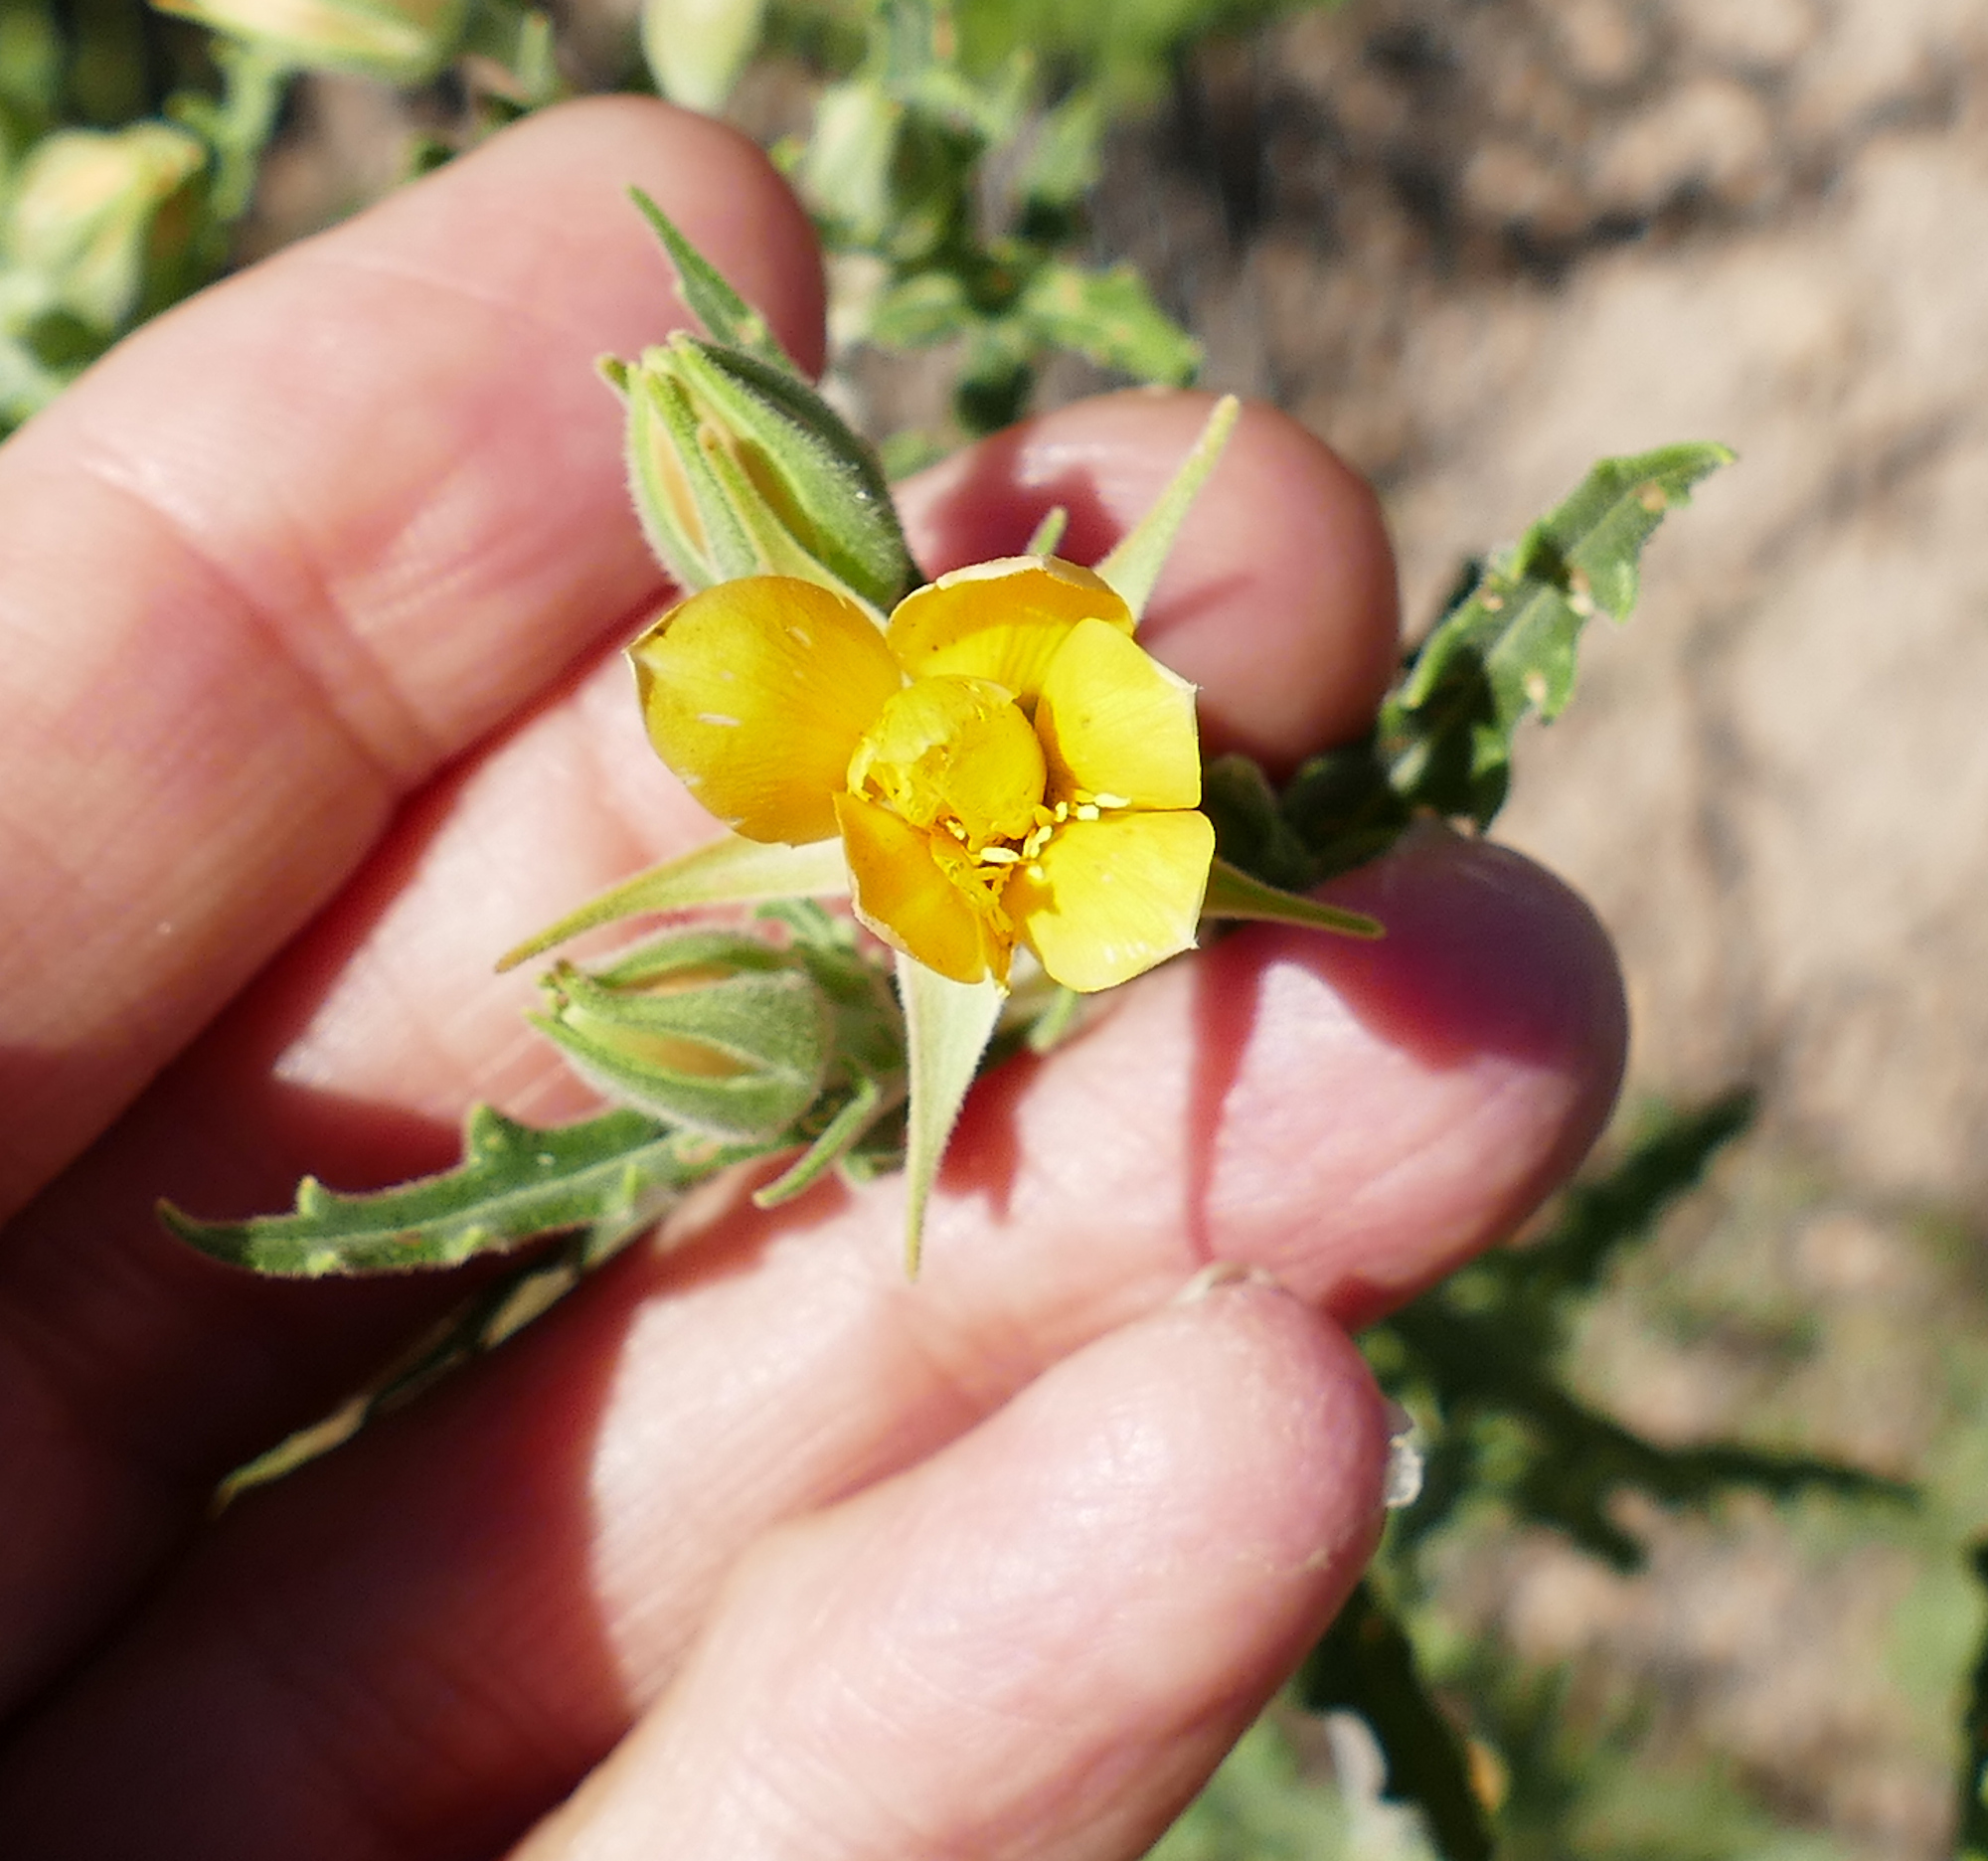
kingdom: Plantae
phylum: Tracheophyta
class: Magnoliopsida
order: Cornales
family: Loasaceae
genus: Mentzelia
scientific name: Mentzelia procera
